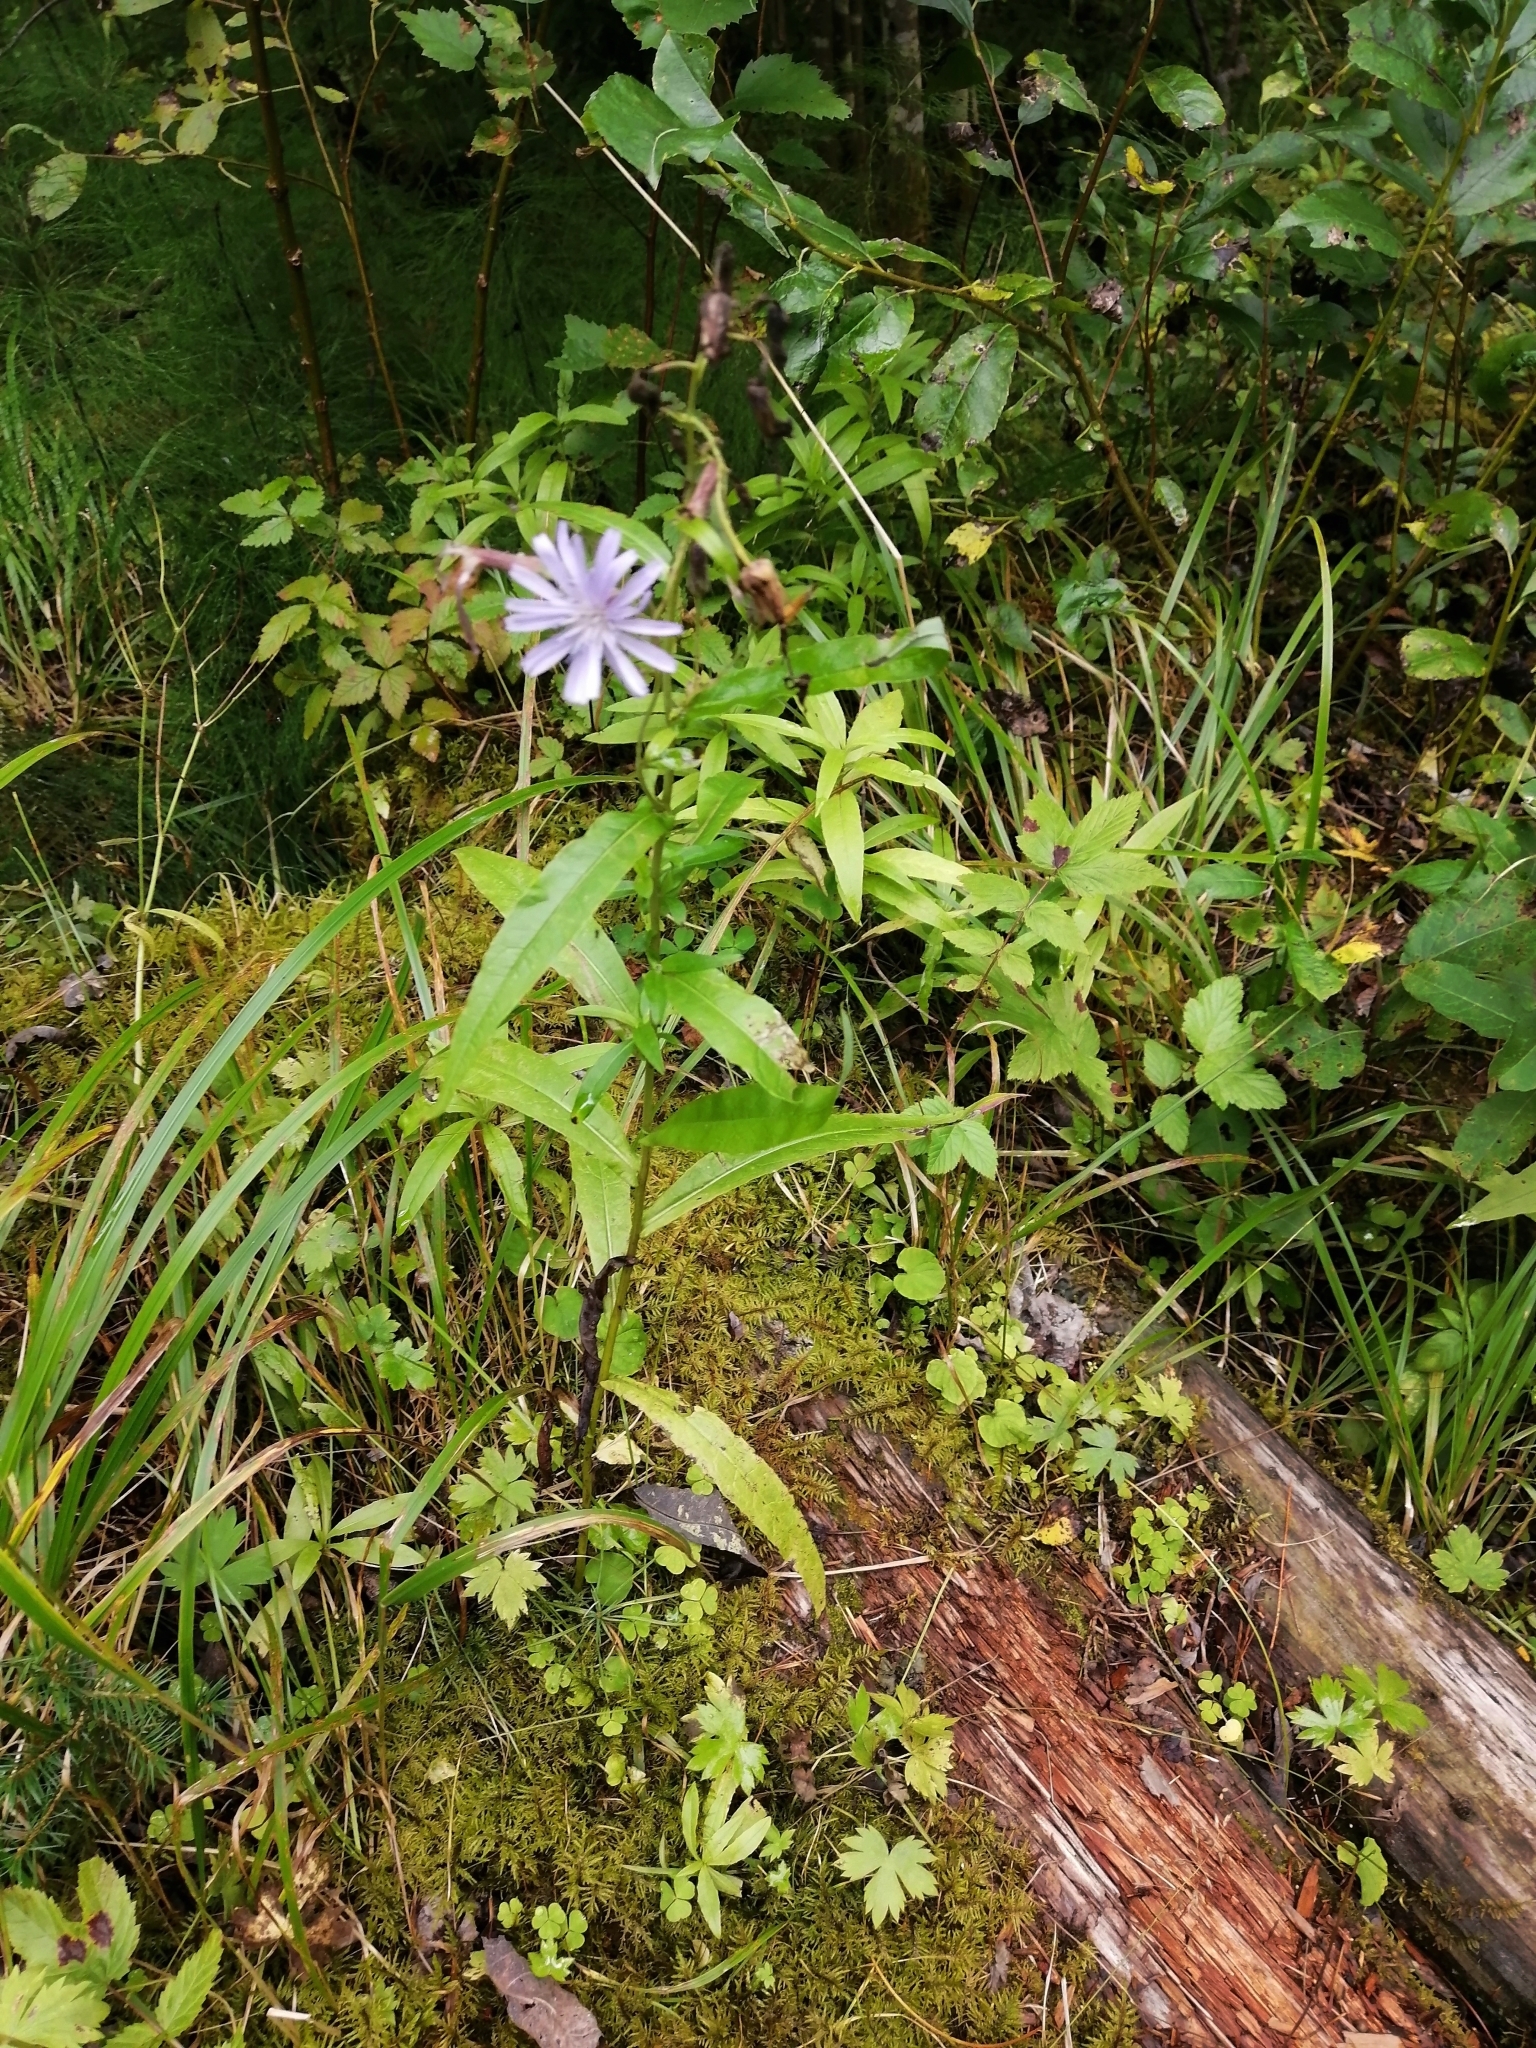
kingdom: Plantae
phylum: Tracheophyta
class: Magnoliopsida
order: Asterales
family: Asteraceae
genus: Lactuca
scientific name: Lactuca sibirica
